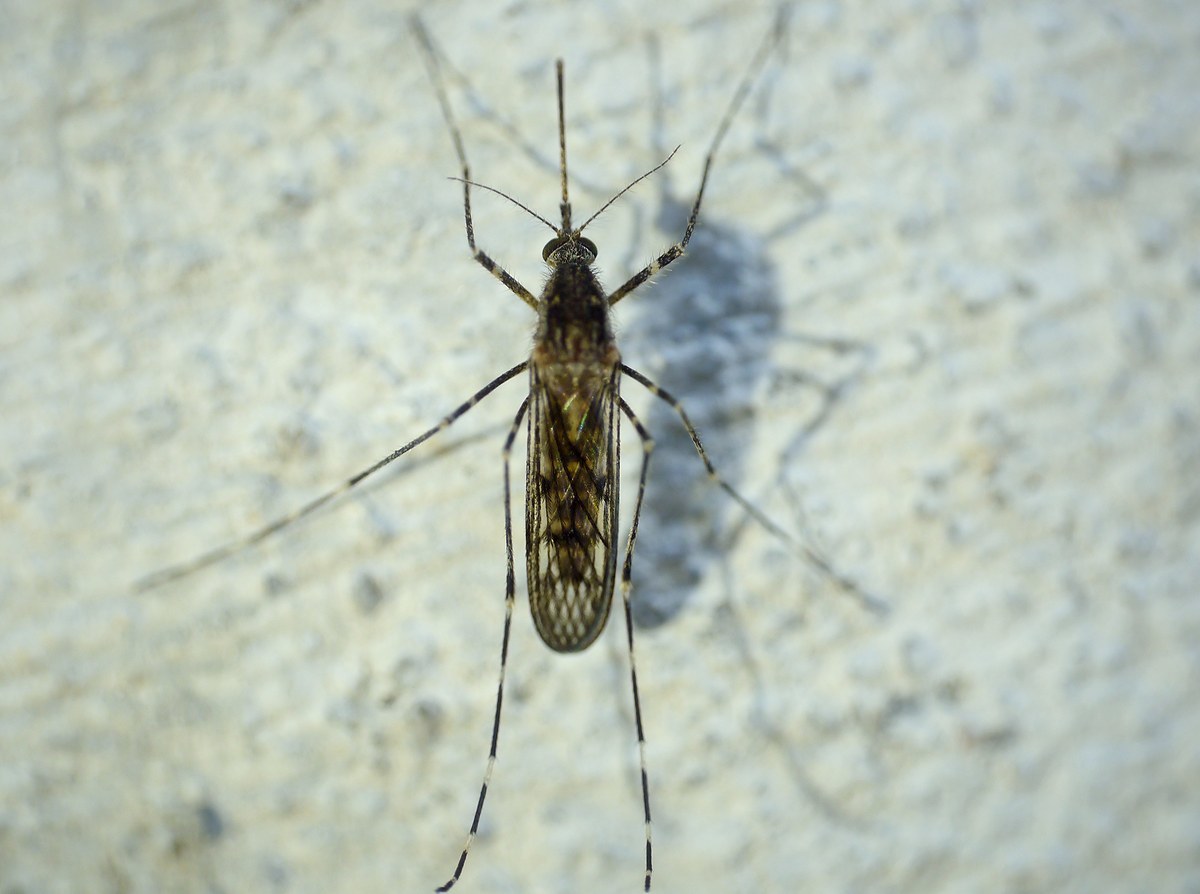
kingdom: Animalia
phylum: Arthropoda
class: Insecta
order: Diptera
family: Culicidae
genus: Culiseta
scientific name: Culiseta annulata
